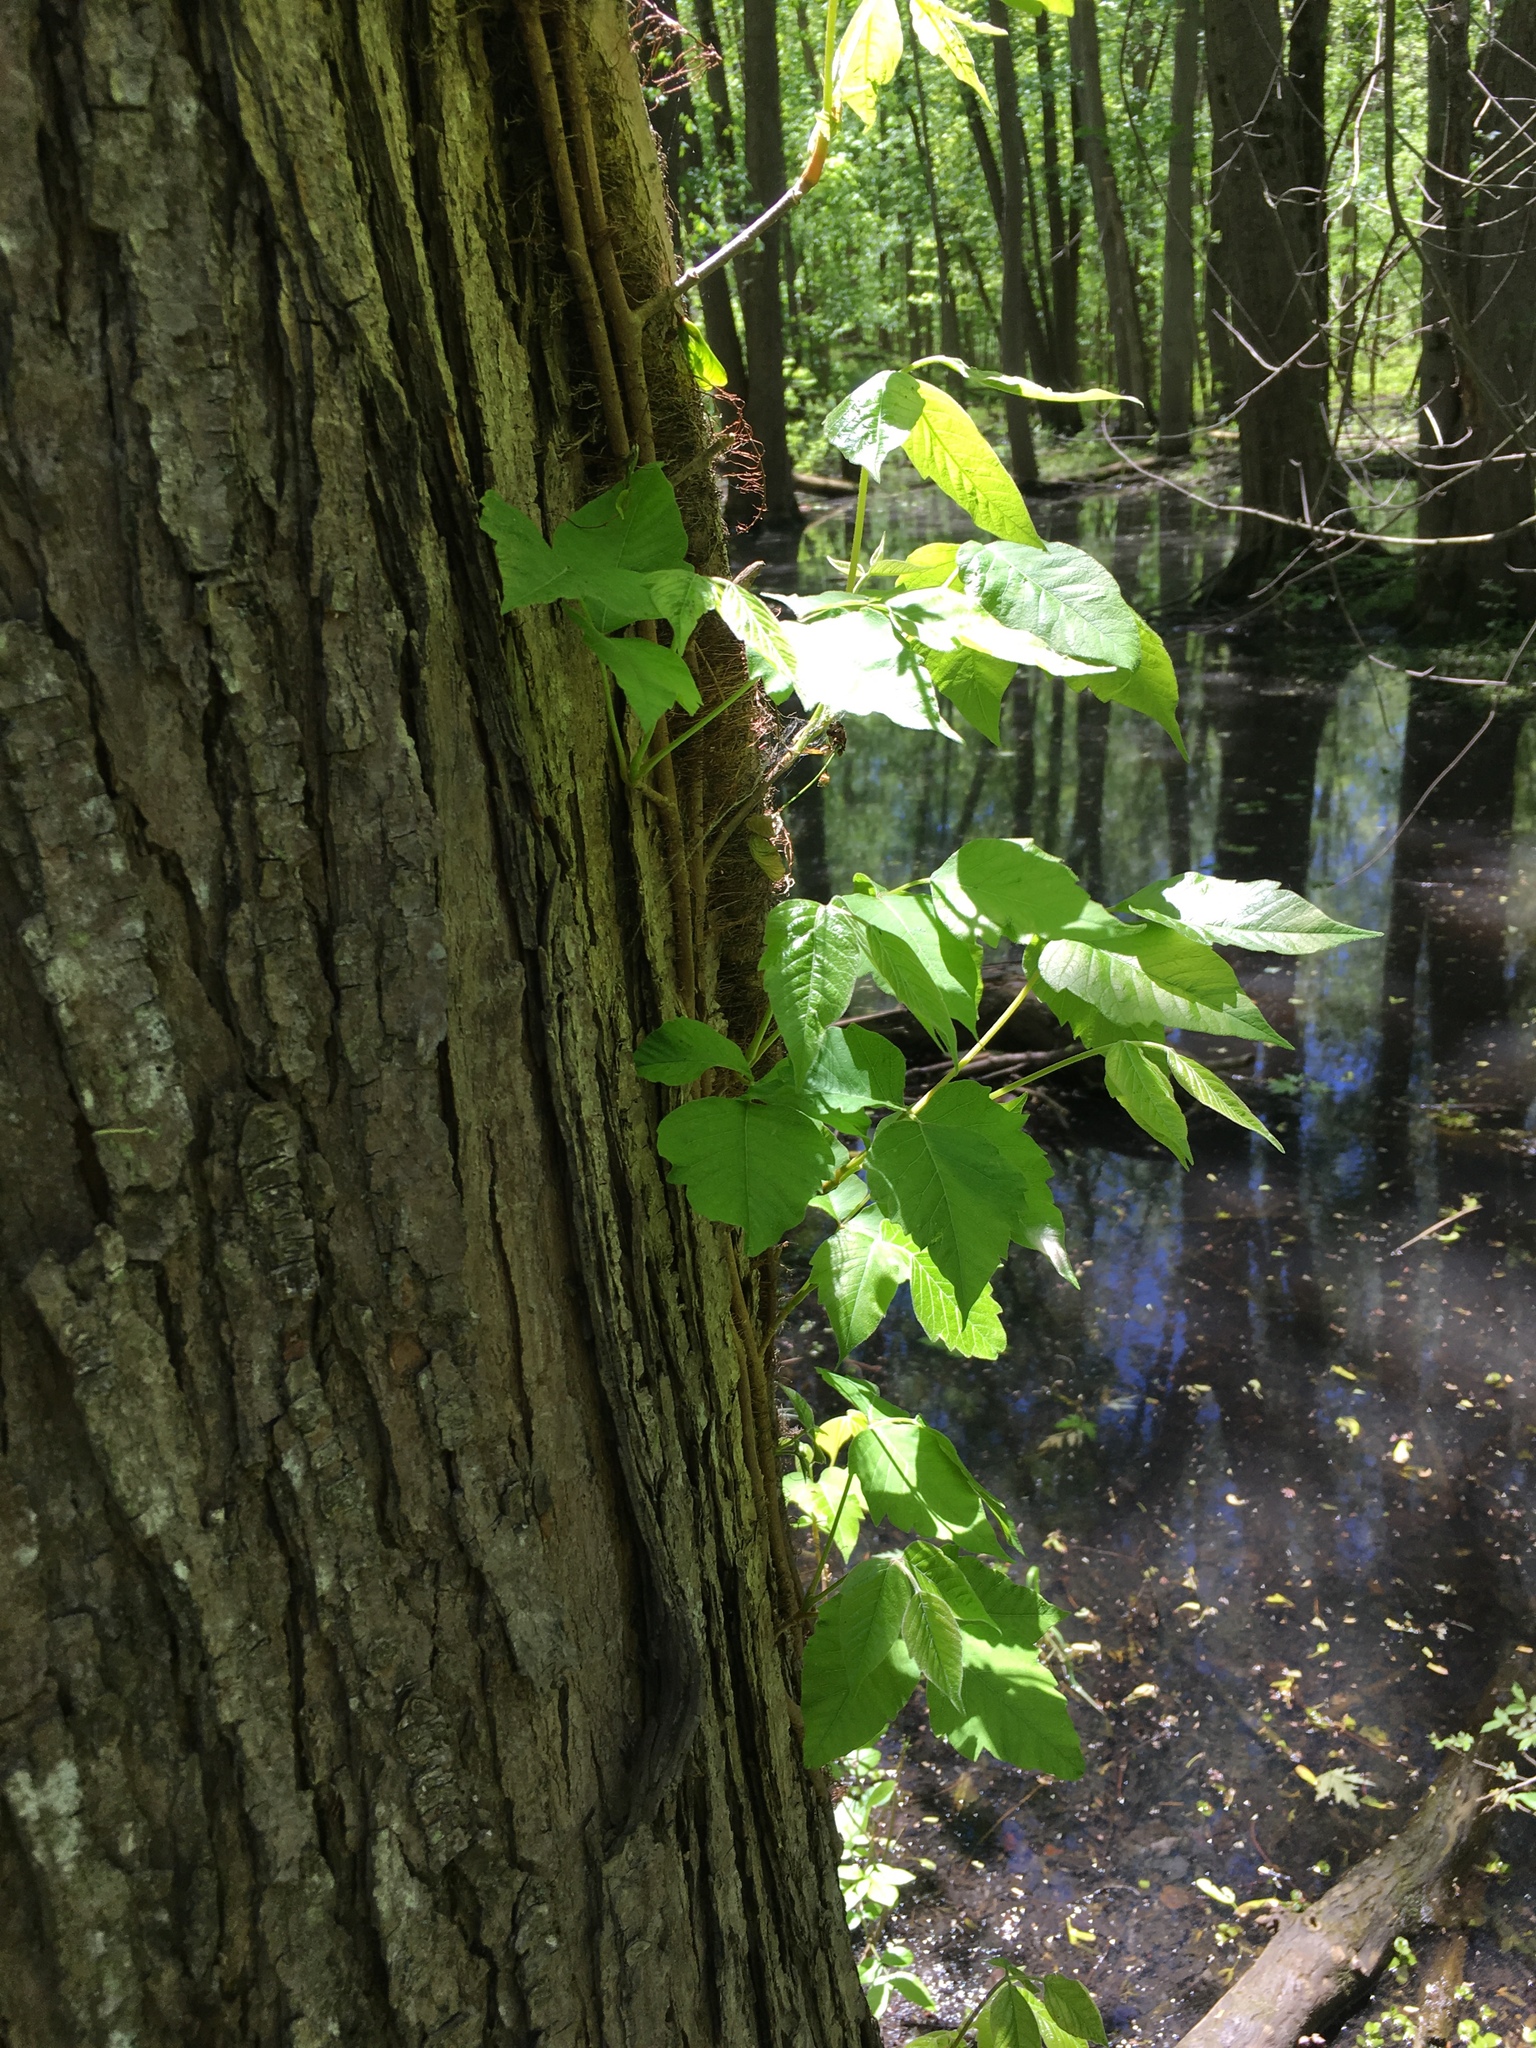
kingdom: Plantae
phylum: Tracheophyta
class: Magnoliopsida
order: Sapindales
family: Anacardiaceae
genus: Toxicodendron
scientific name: Toxicodendron radicans
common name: Poison ivy
